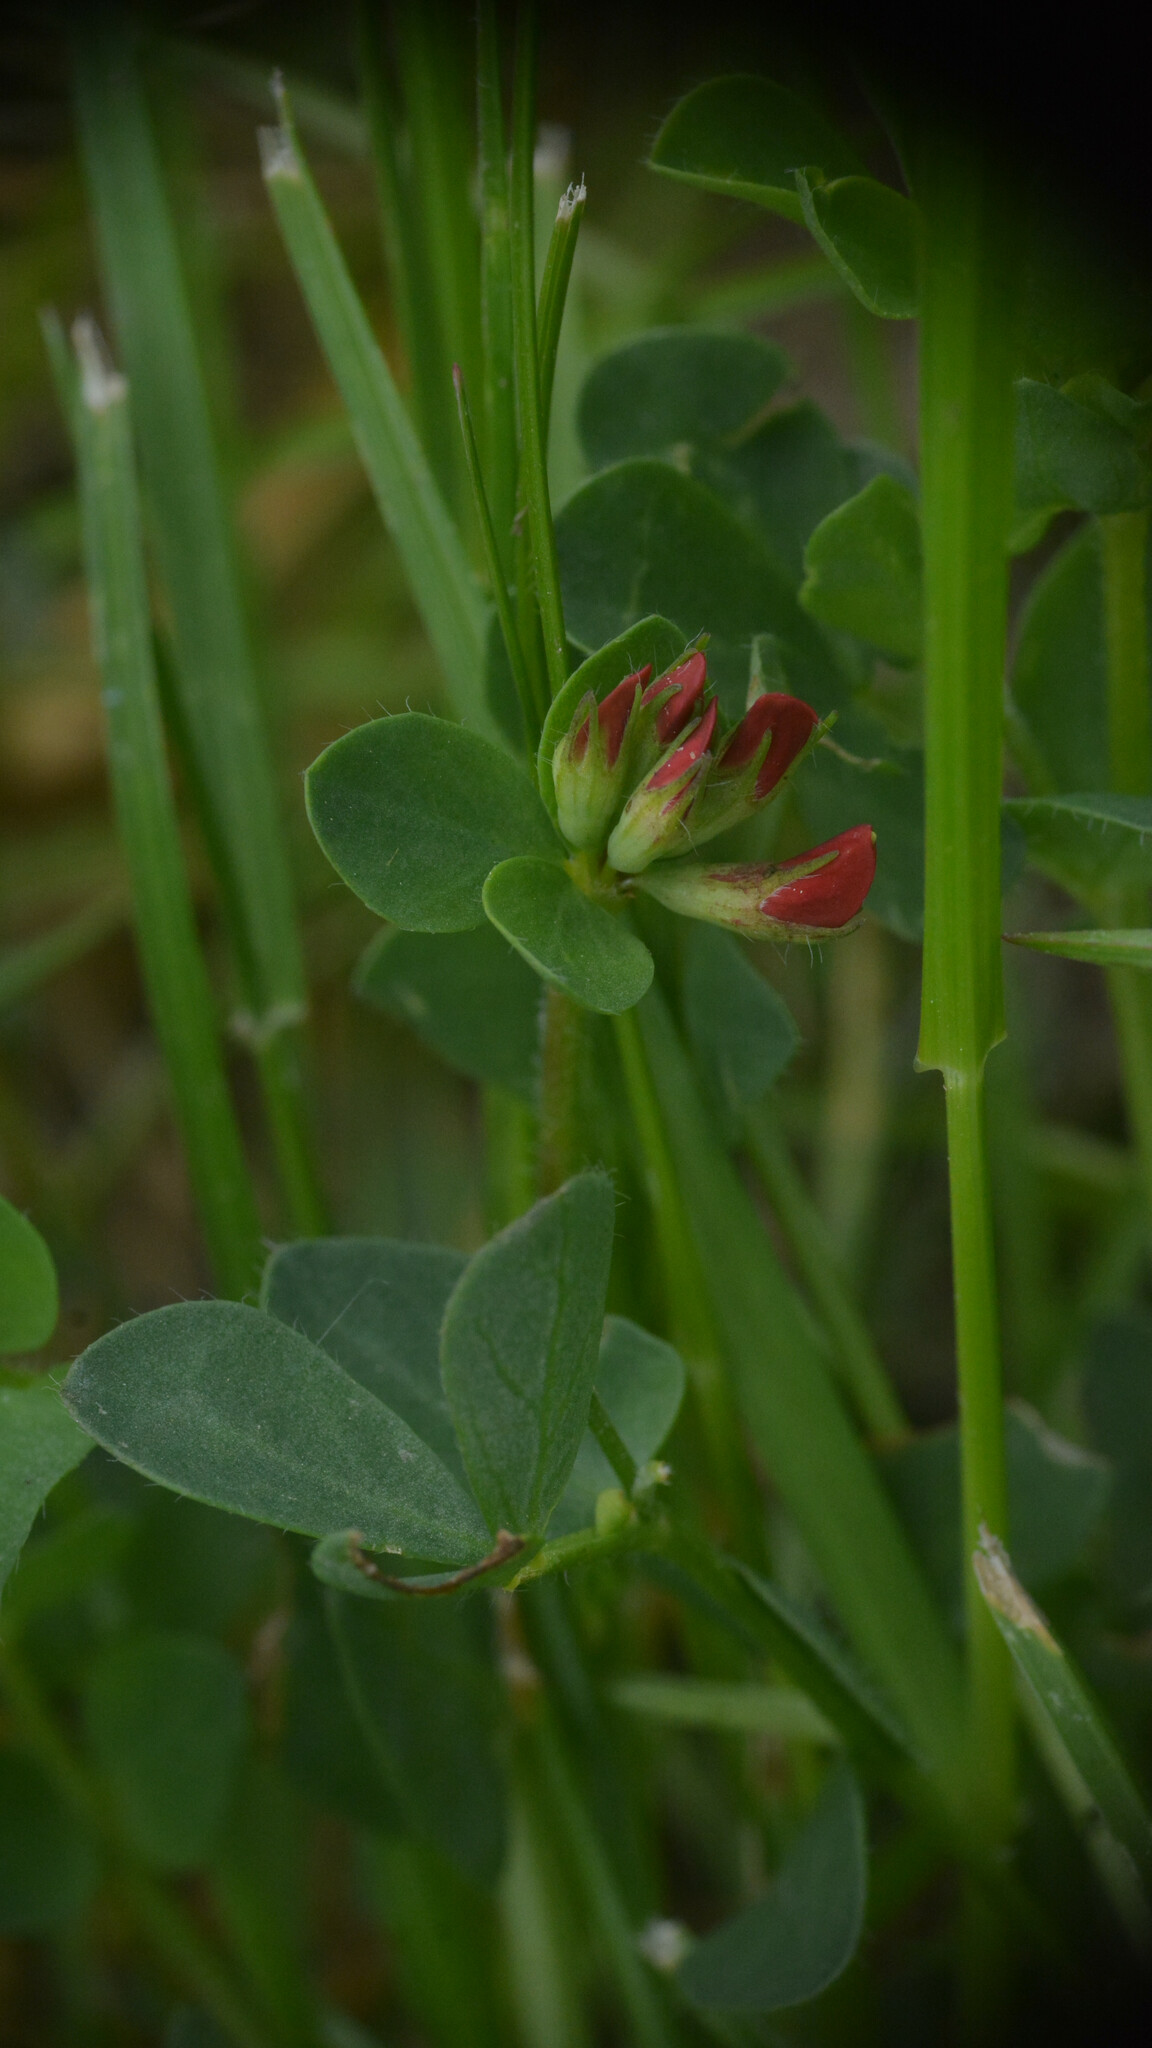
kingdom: Plantae
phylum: Tracheophyta
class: Magnoliopsida
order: Fabales
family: Fabaceae
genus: Lotus
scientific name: Lotus corniculatus
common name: Common bird's-foot-trefoil
